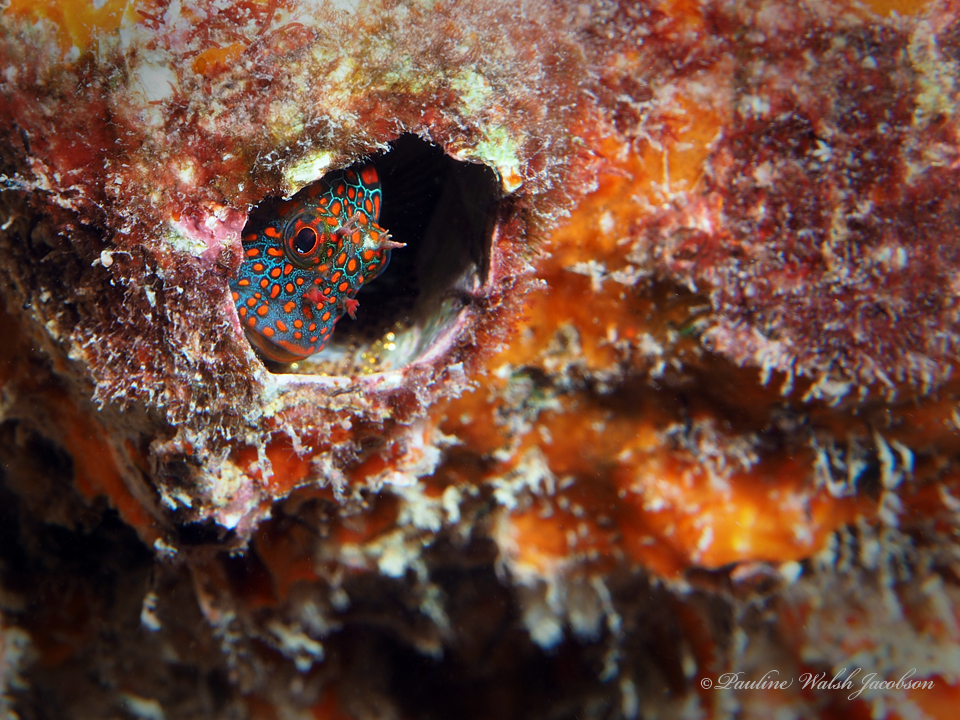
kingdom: Animalia
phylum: Chordata
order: Perciformes
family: Blenniidae
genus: Hypsoblennius
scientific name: Hypsoblennius invemar
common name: Tessellated blenny
